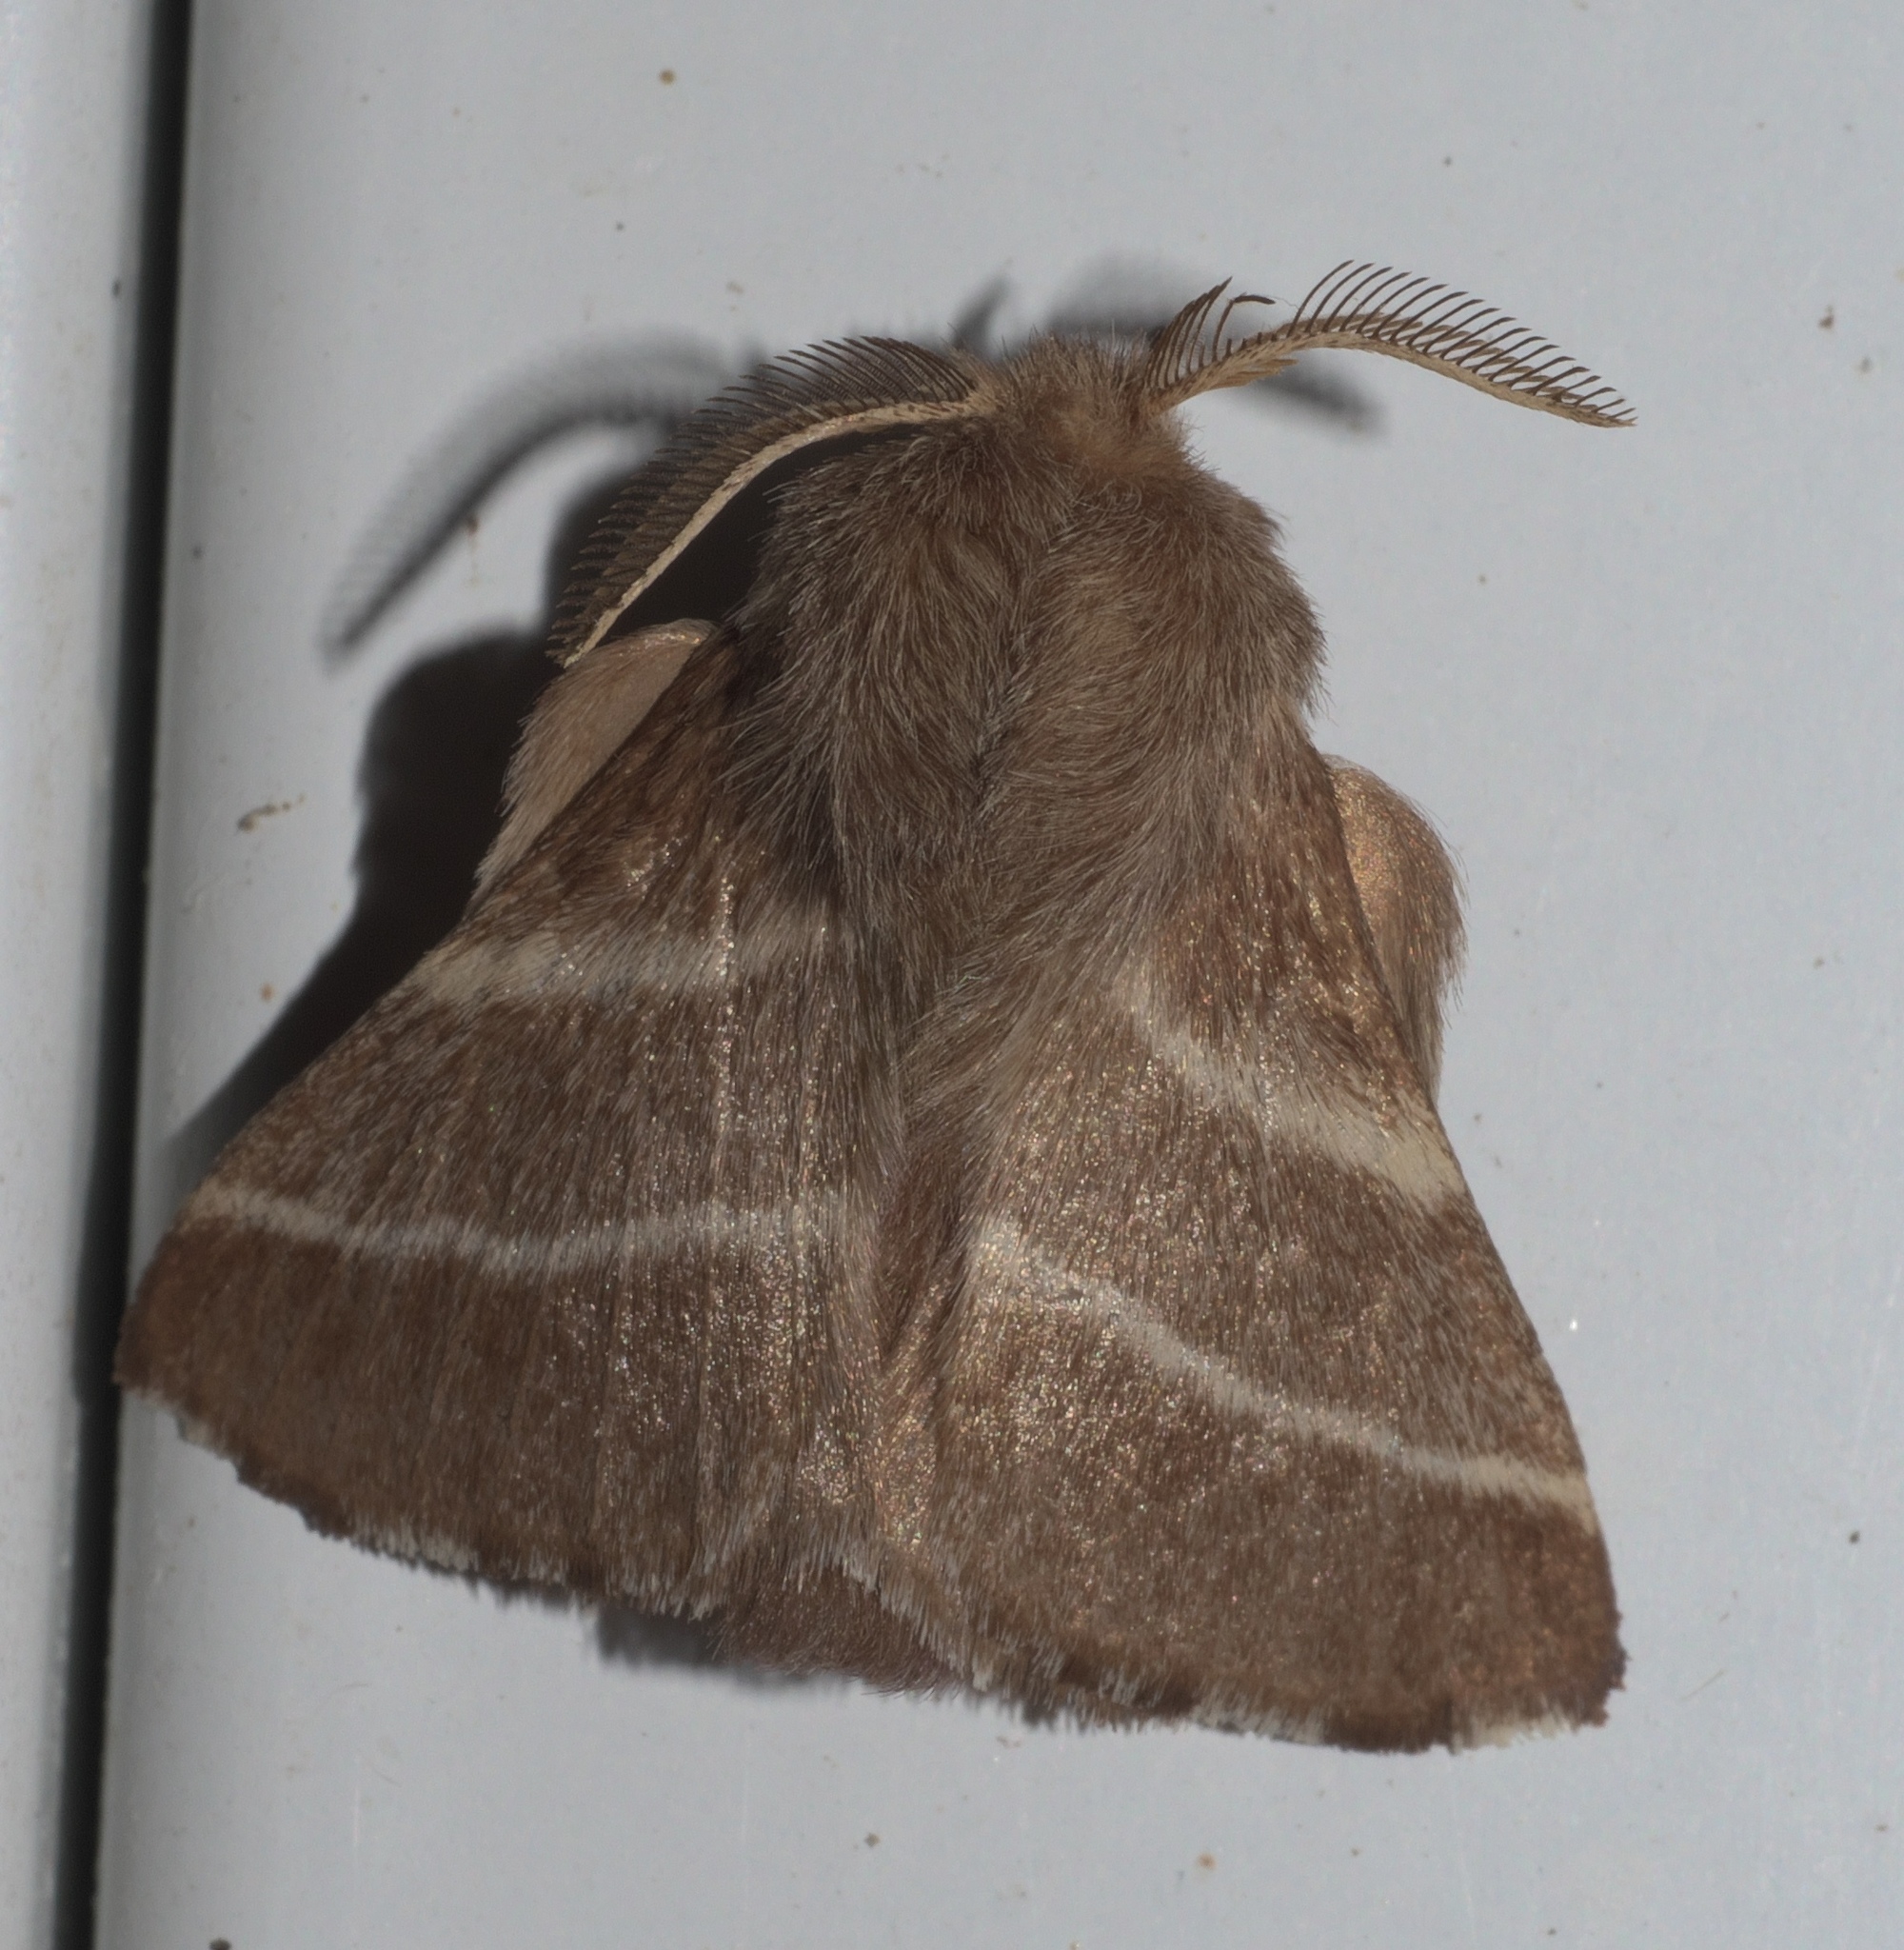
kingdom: Animalia
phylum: Arthropoda
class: Insecta
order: Lepidoptera
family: Lasiocampidae
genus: Malacosoma
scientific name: Malacosoma americana
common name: Eastern tent caterpillar moth
